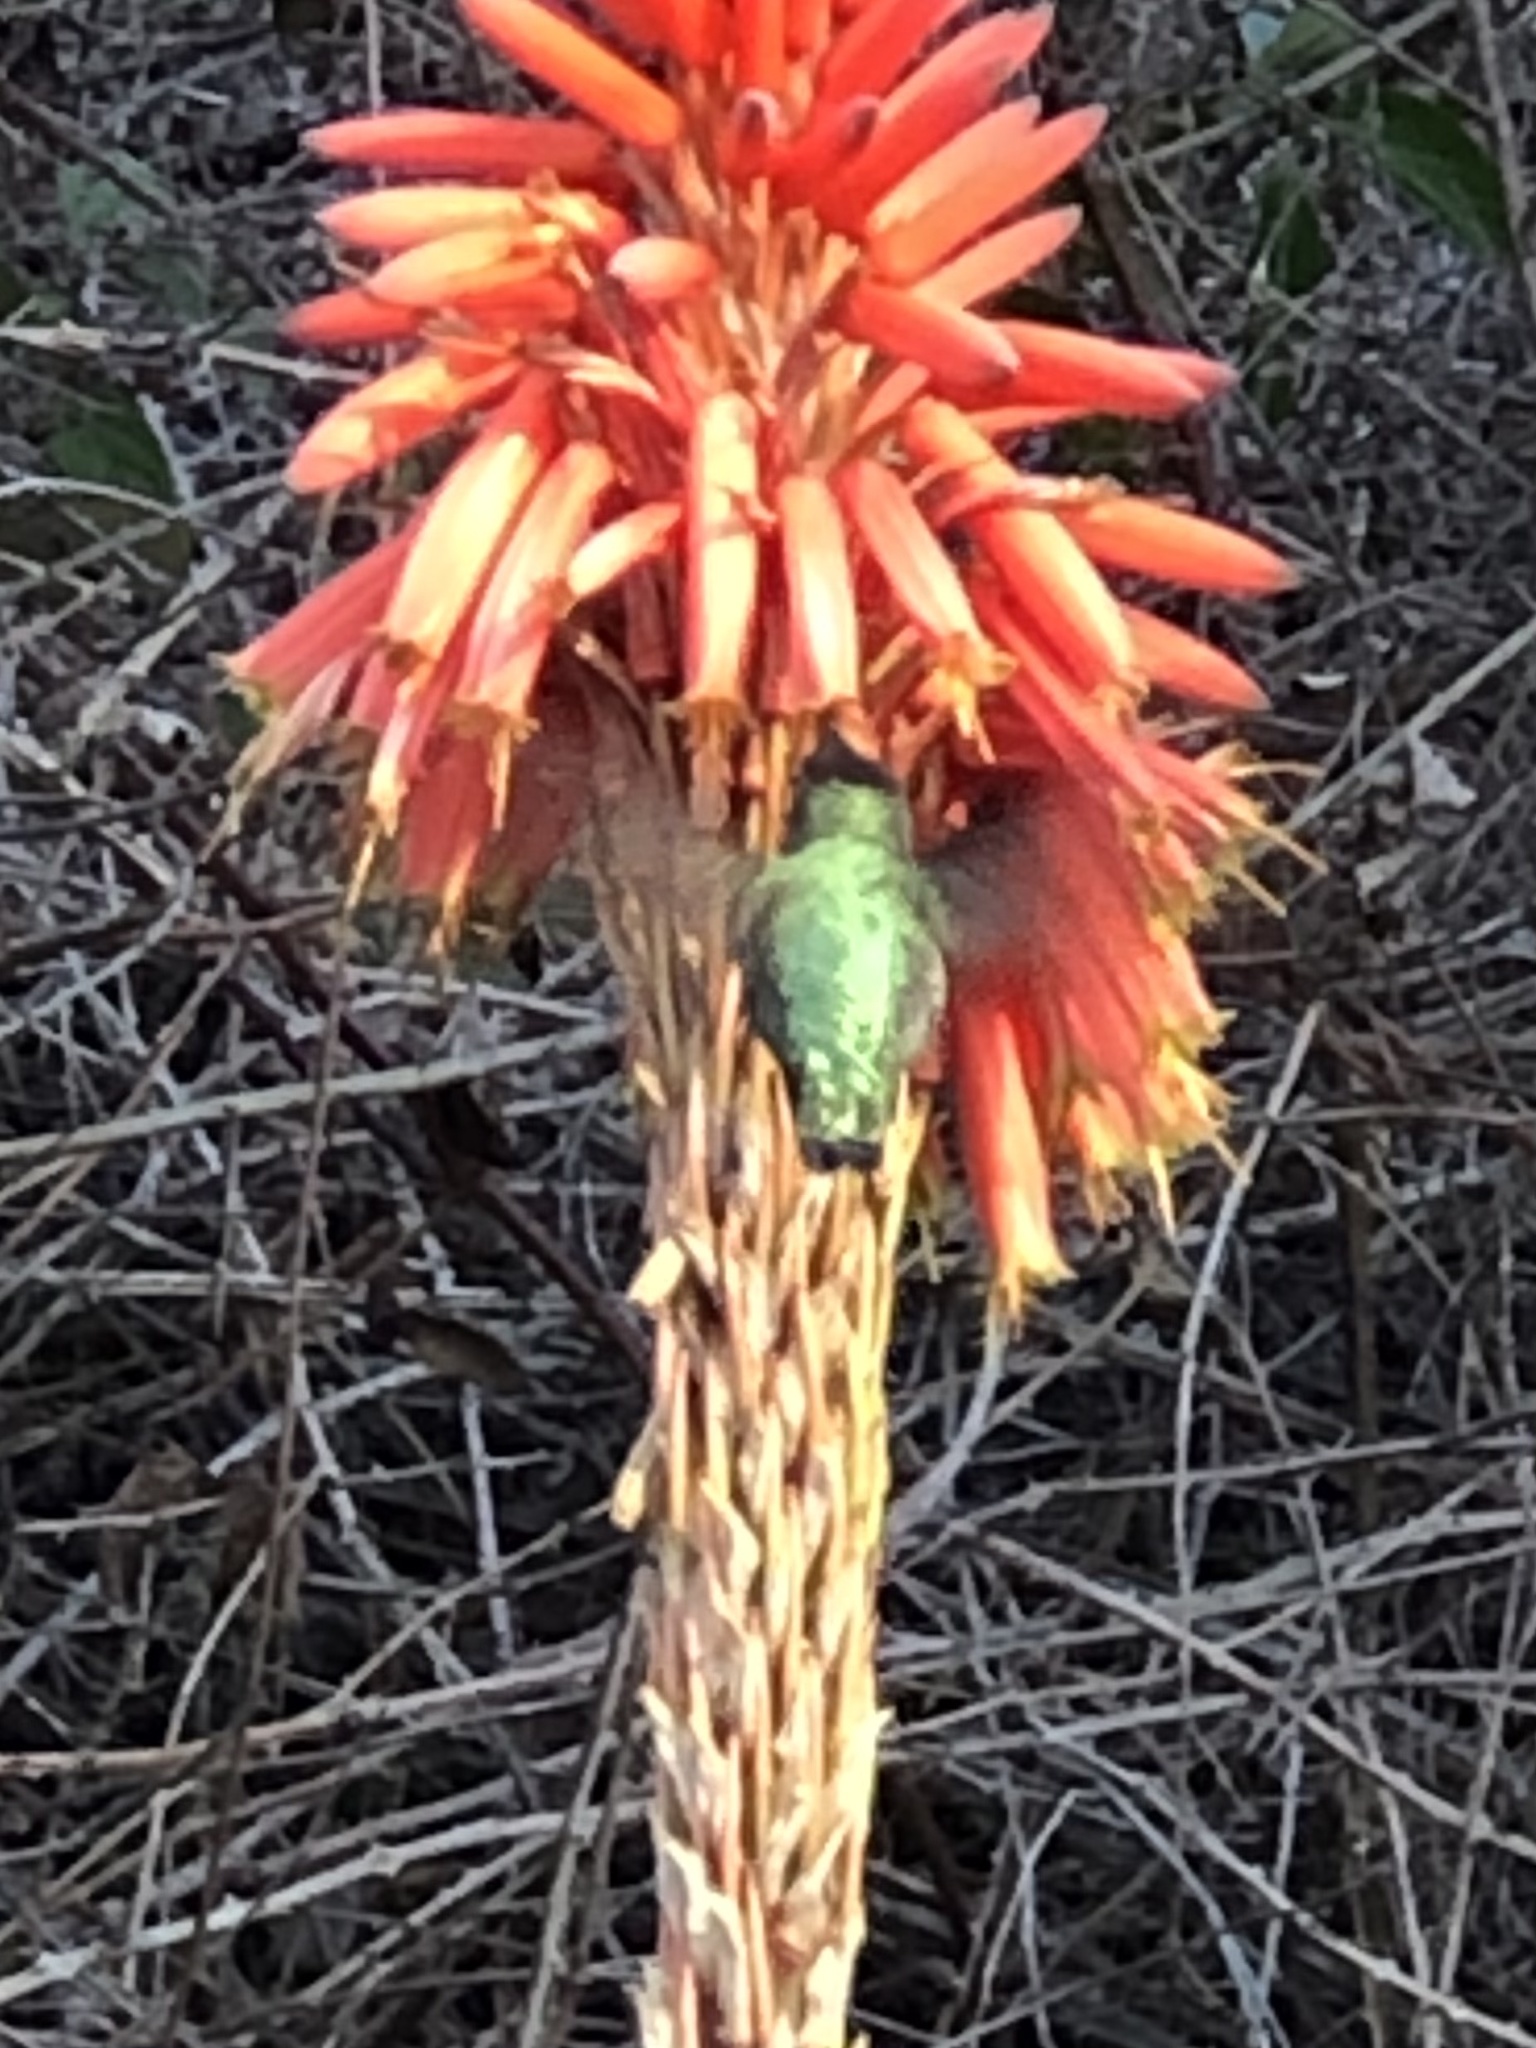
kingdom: Animalia
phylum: Chordata
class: Aves
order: Apodiformes
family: Trochilidae
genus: Calypte
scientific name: Calypte anna
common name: Anna's hummingbird
